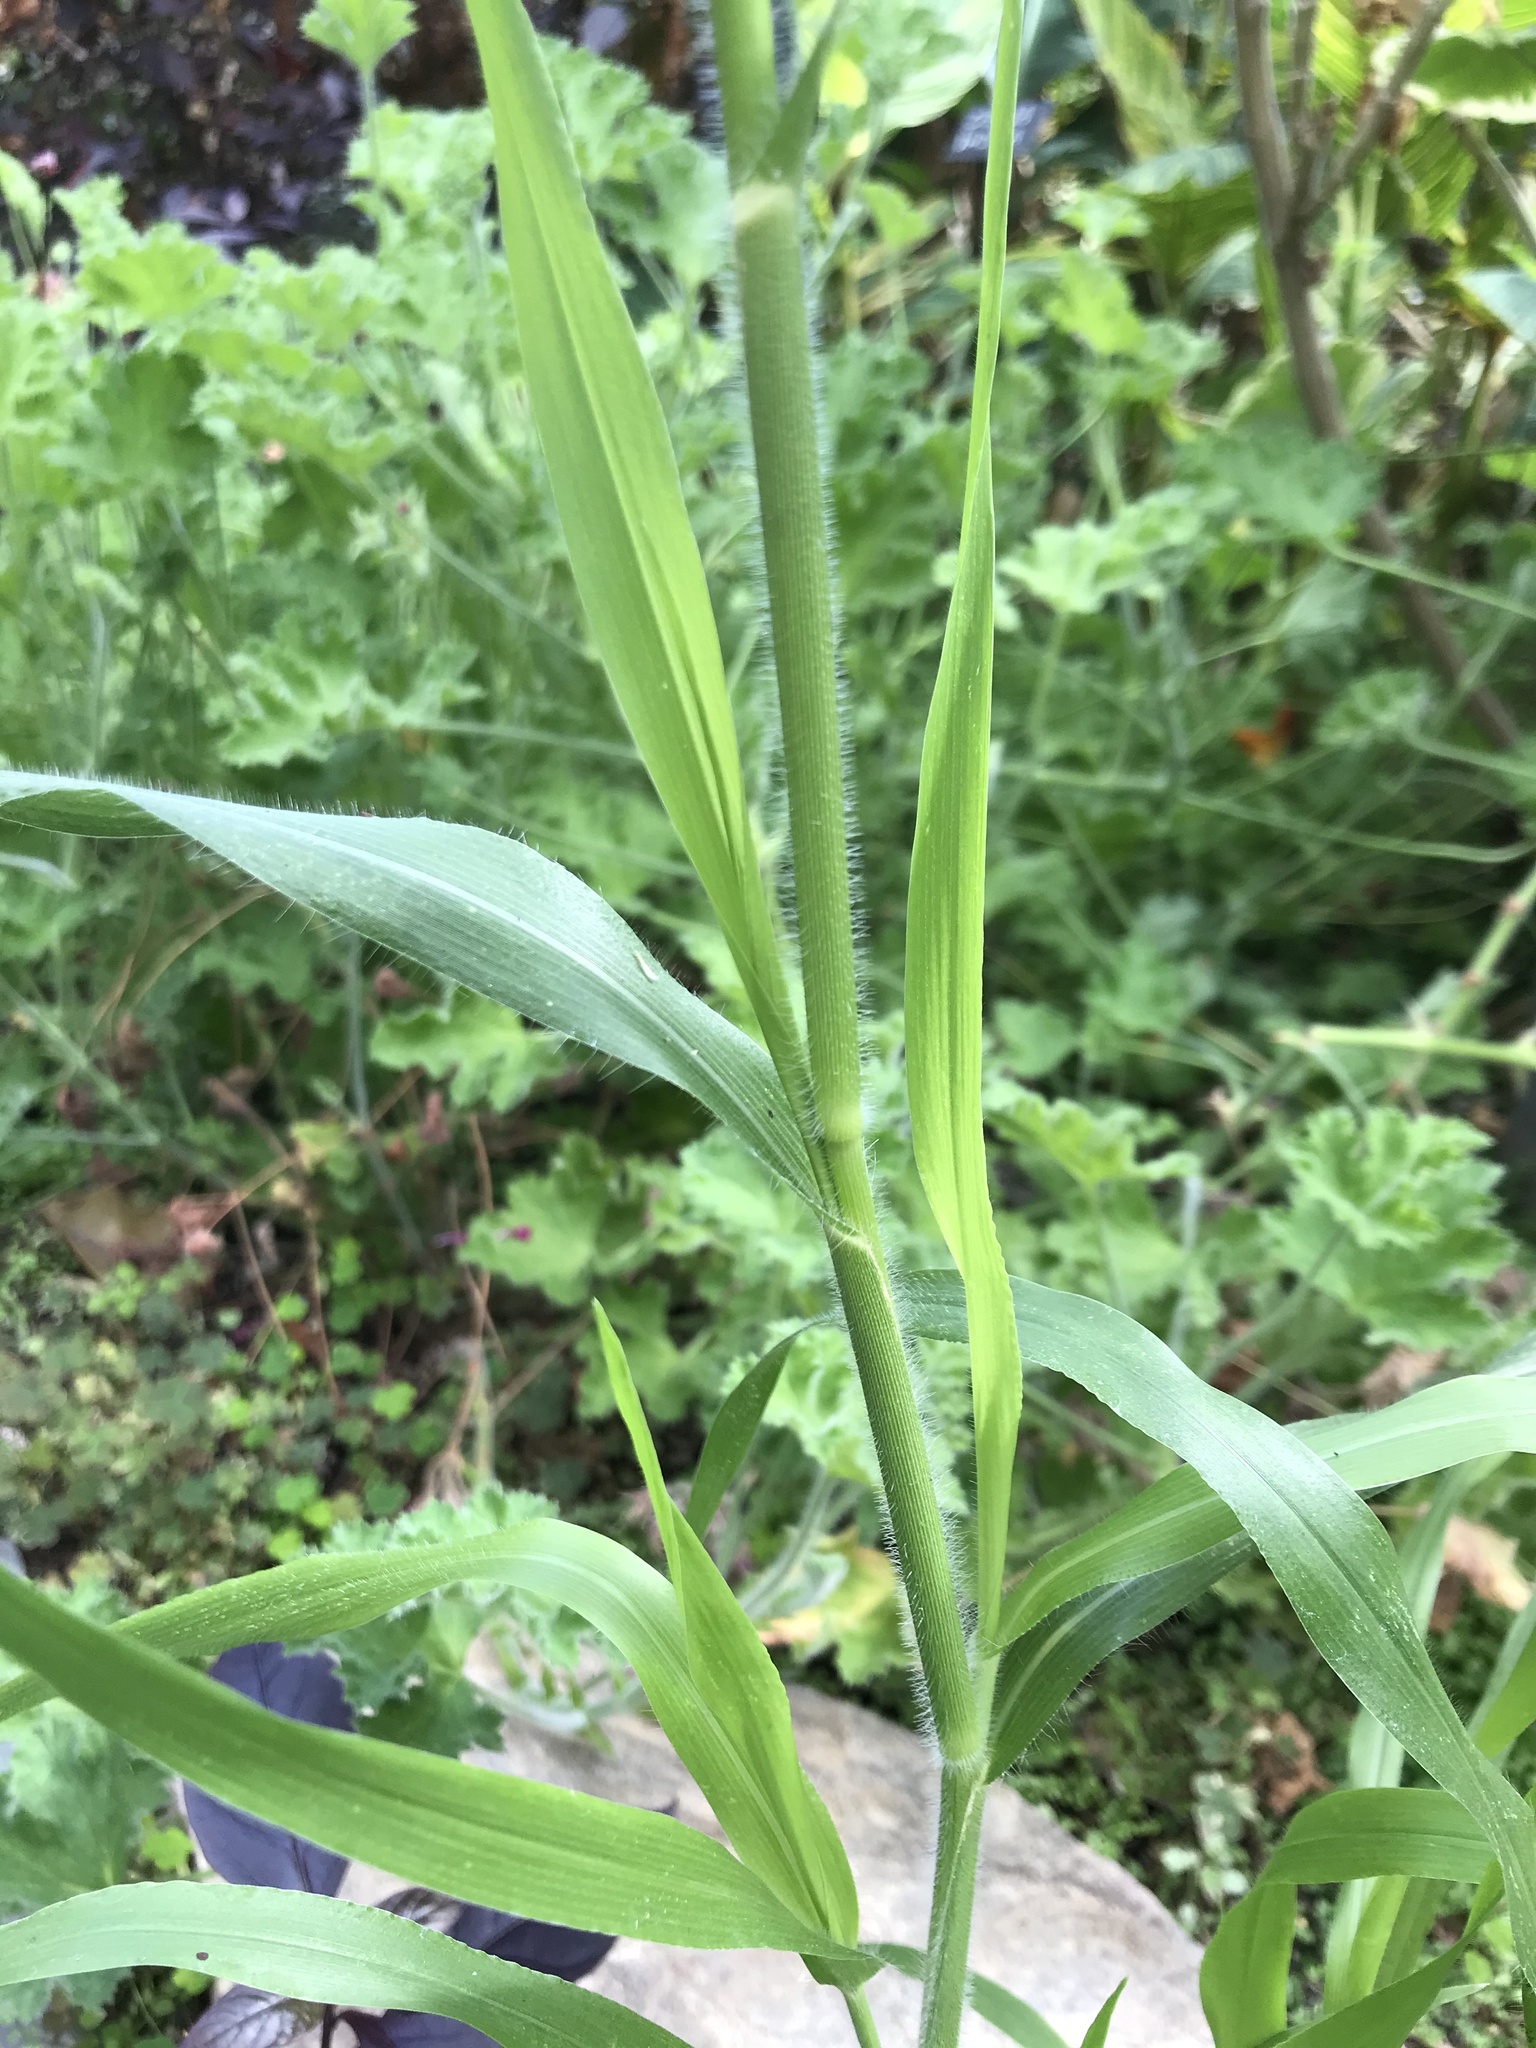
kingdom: Plantae
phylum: Tracheophyta
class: Liliopsida
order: Poales
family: Poaceae
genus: Panicum
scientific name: Panicum capillare
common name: Witch-grass
